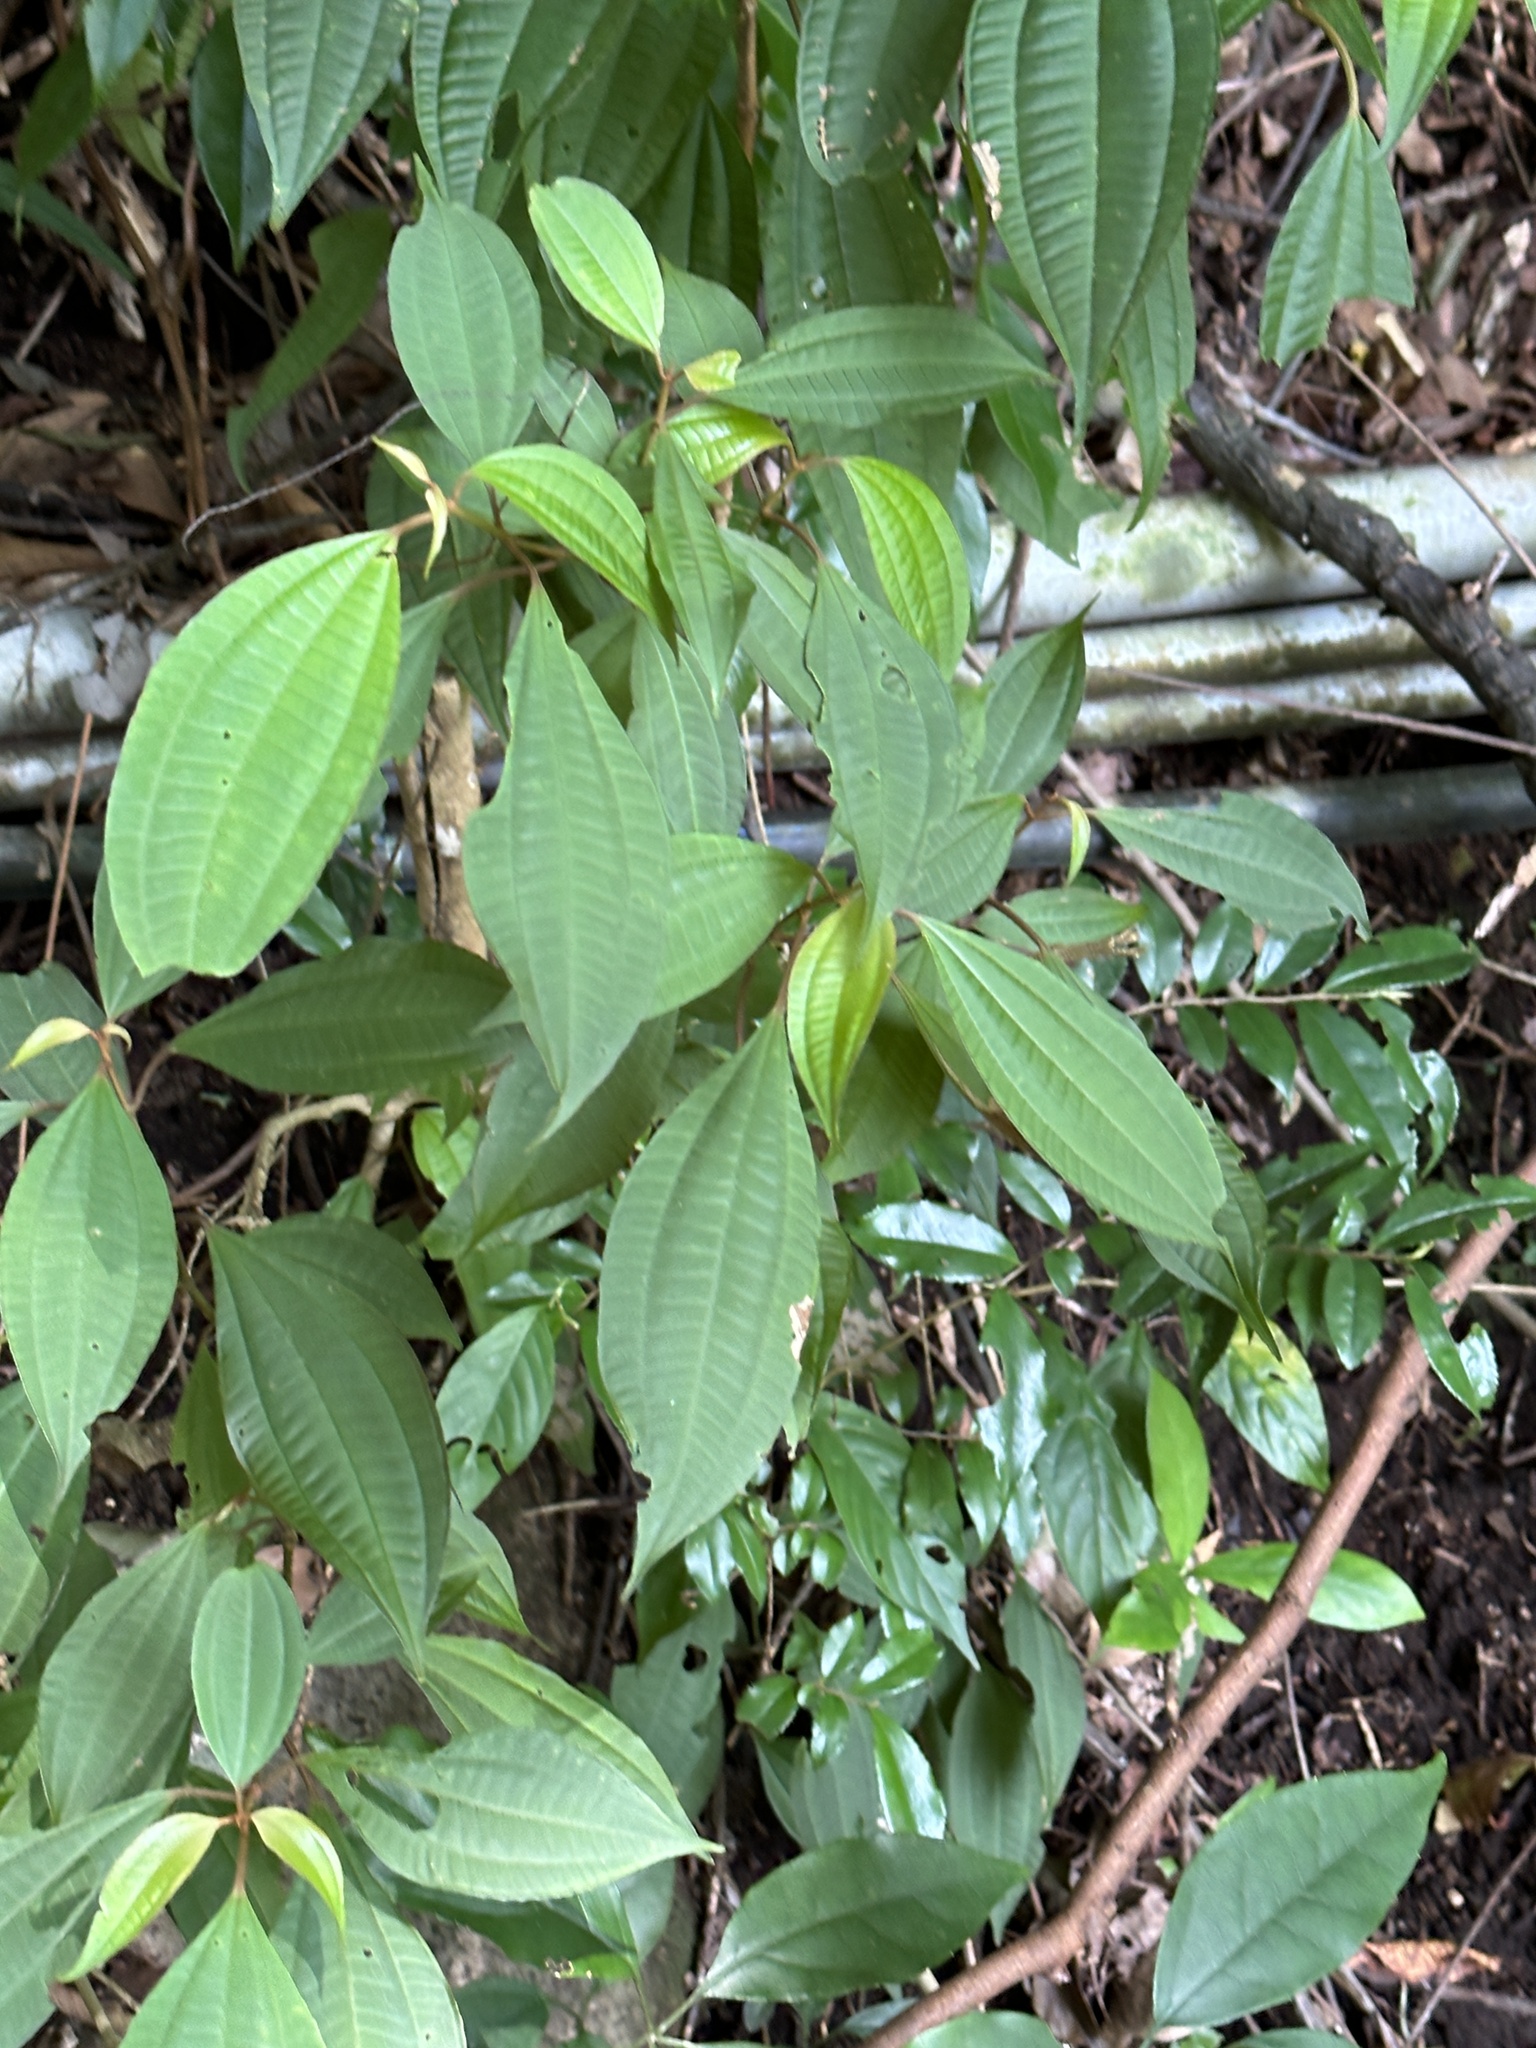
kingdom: Plantae
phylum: Tracheophyta
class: Magnoliopsida
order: Myrtales
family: Melastomataceae
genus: Blastus
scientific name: Blastus cochinchinensis
